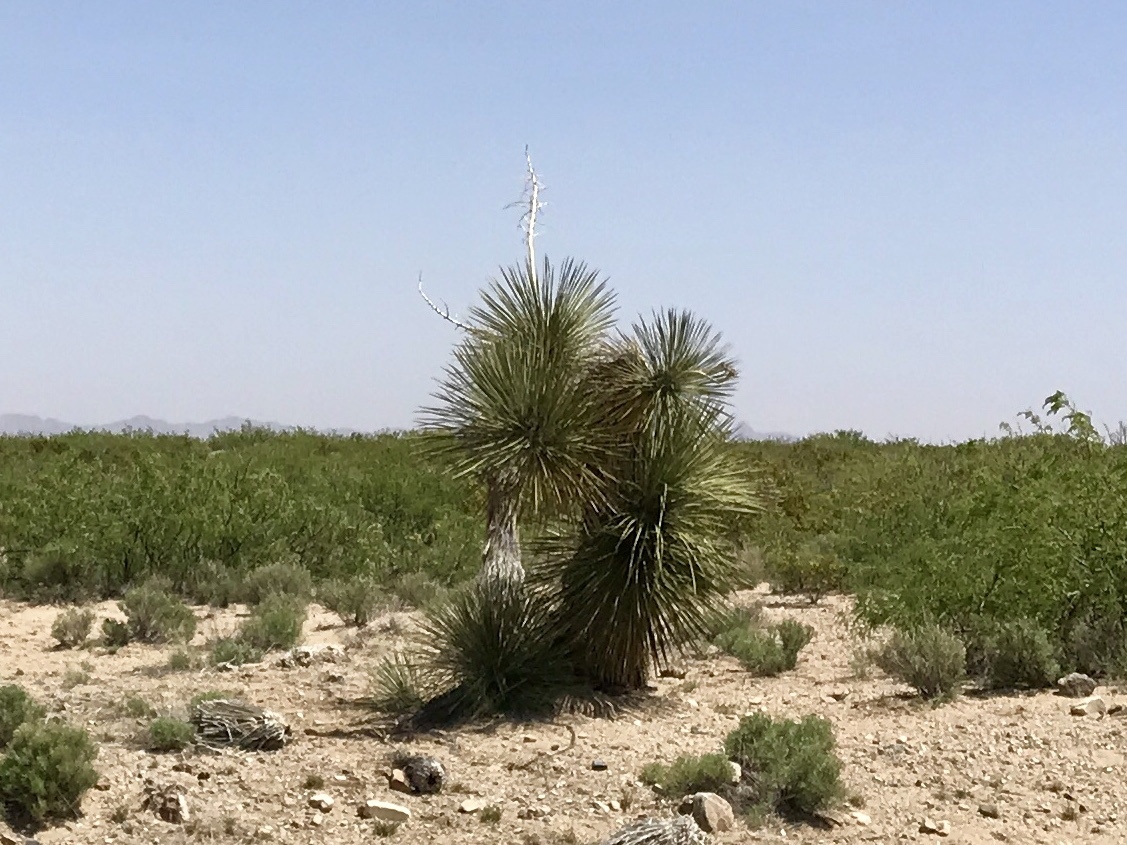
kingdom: Plantae
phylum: Tracheophyta
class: Liliopsida
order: Asparagales
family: Asparagaceae
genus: Yucca
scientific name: Yucca elata
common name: Palmella
